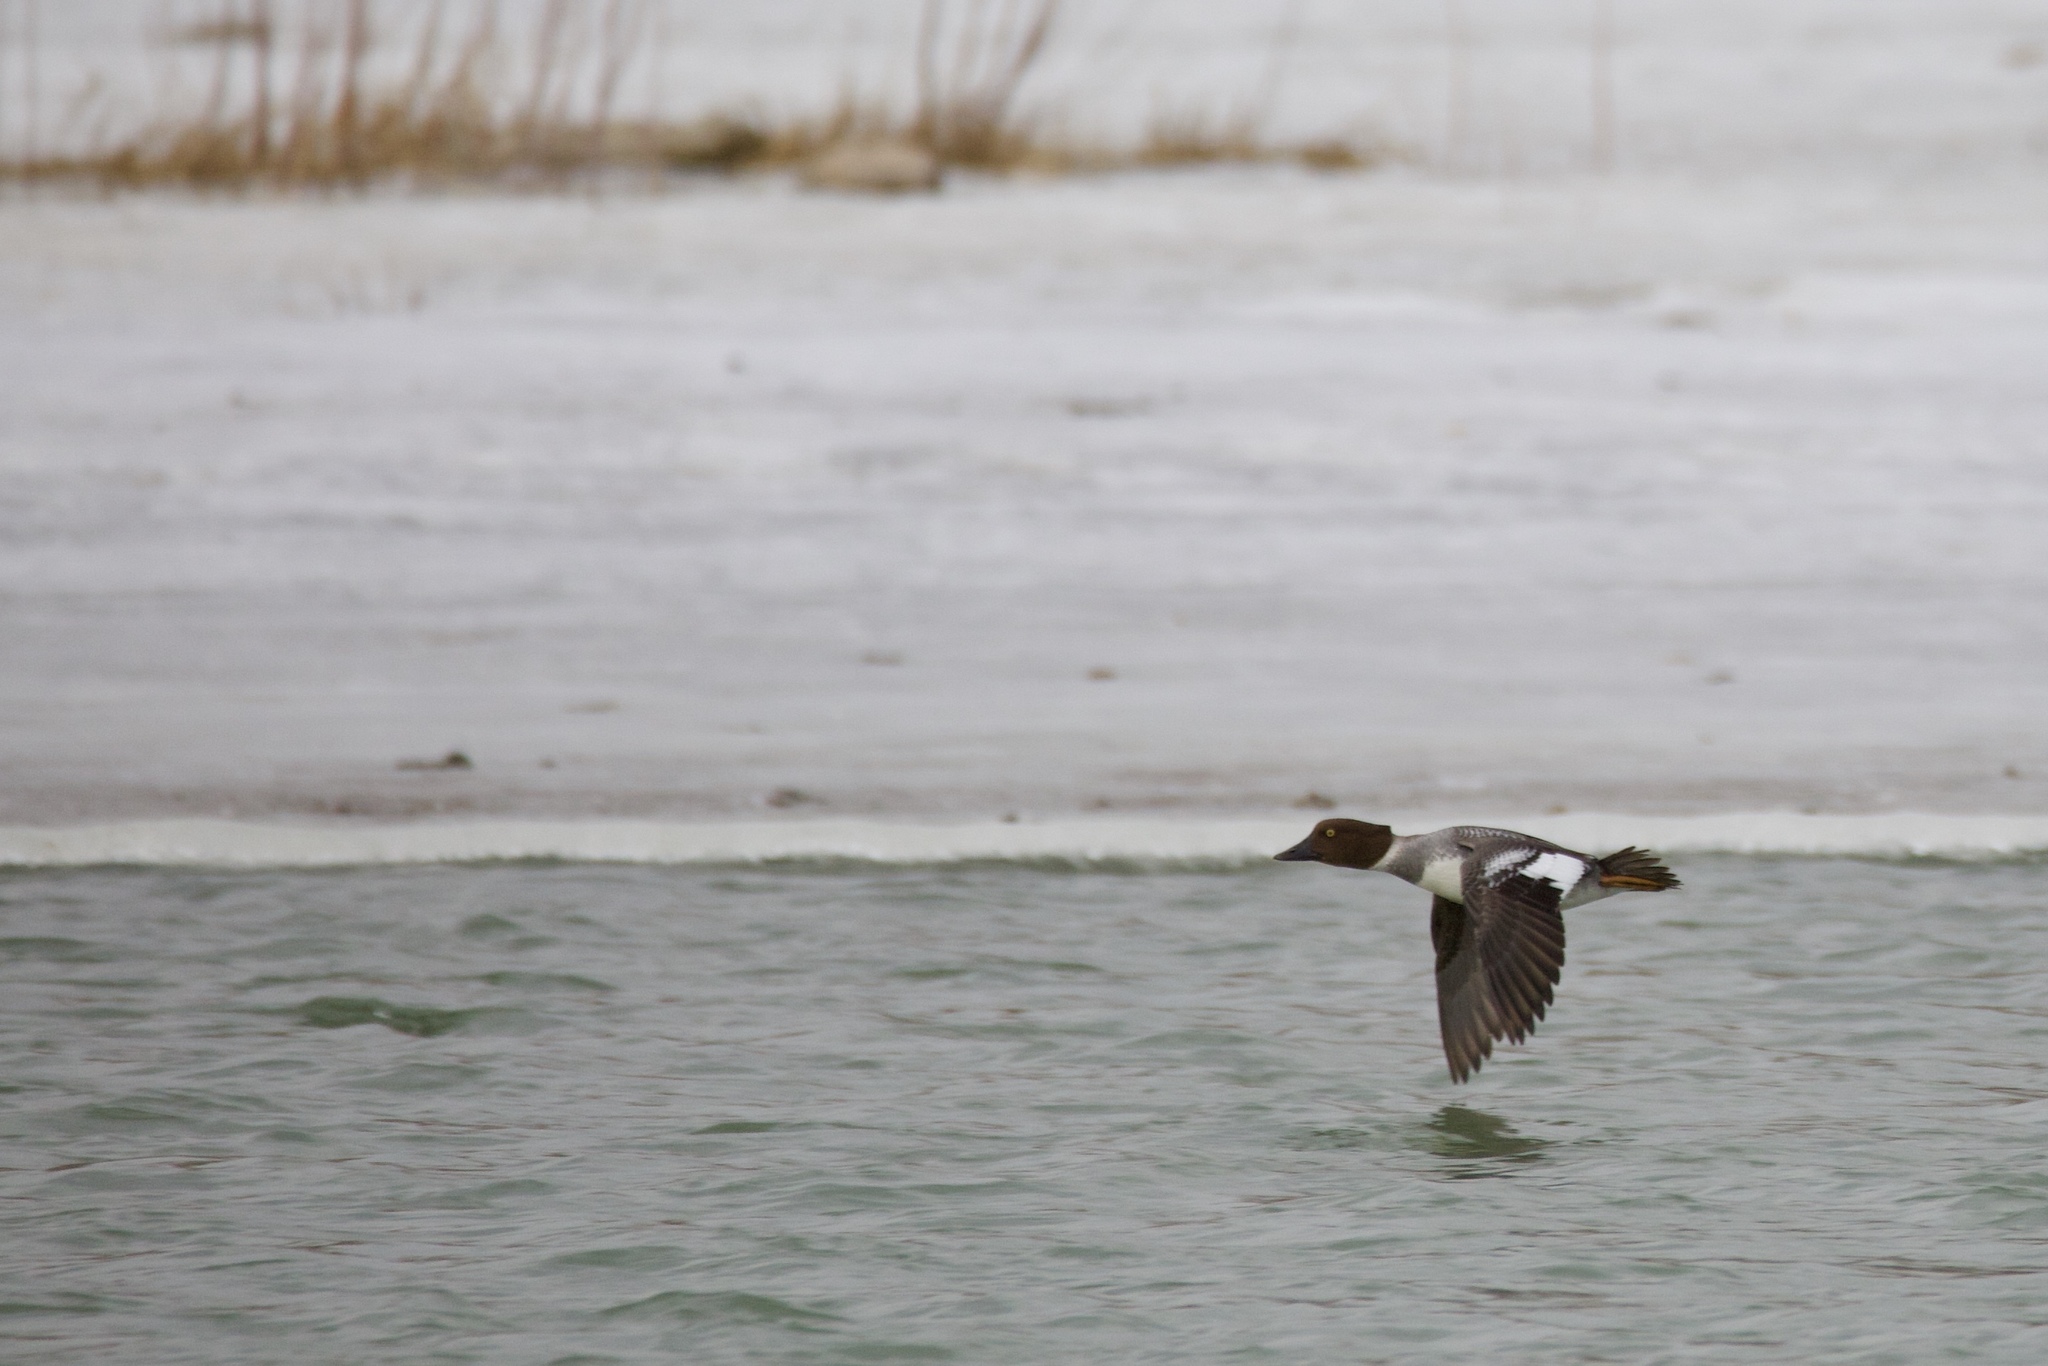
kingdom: Animalia
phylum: Chordata
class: Aves
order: Anseriformes
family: Anatidae
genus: Bucephala
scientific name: Bucephala clangula
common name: Common goldeneye
